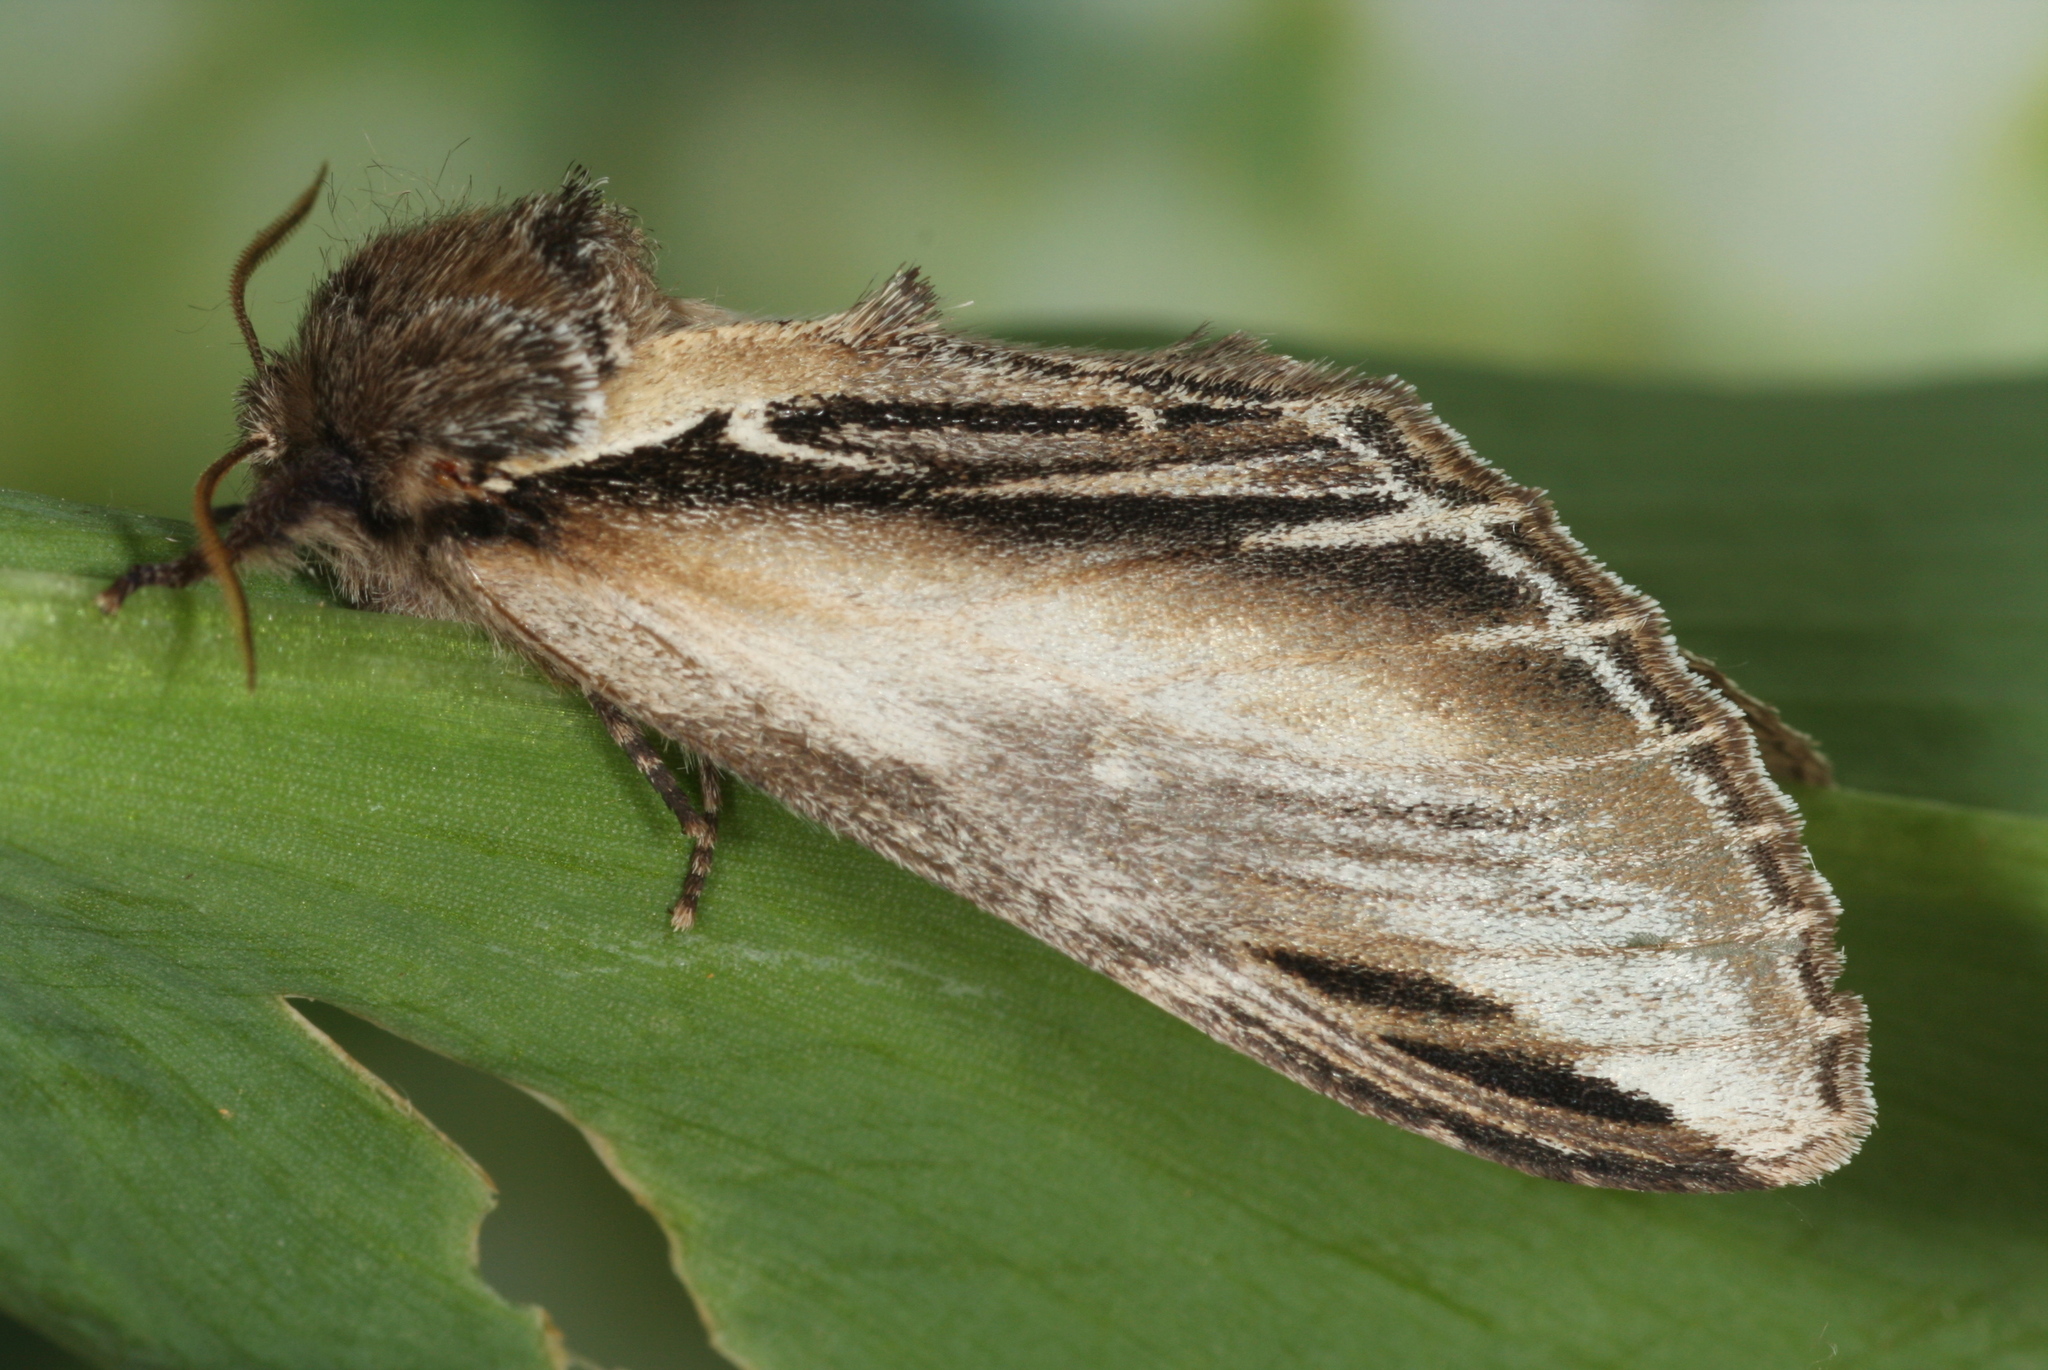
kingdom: Animalia
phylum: Arthropoda
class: Insecta
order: Lepidoptera
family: Notodontidae
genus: Pheosia
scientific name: Pheosia tremula
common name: Swallow prominent
